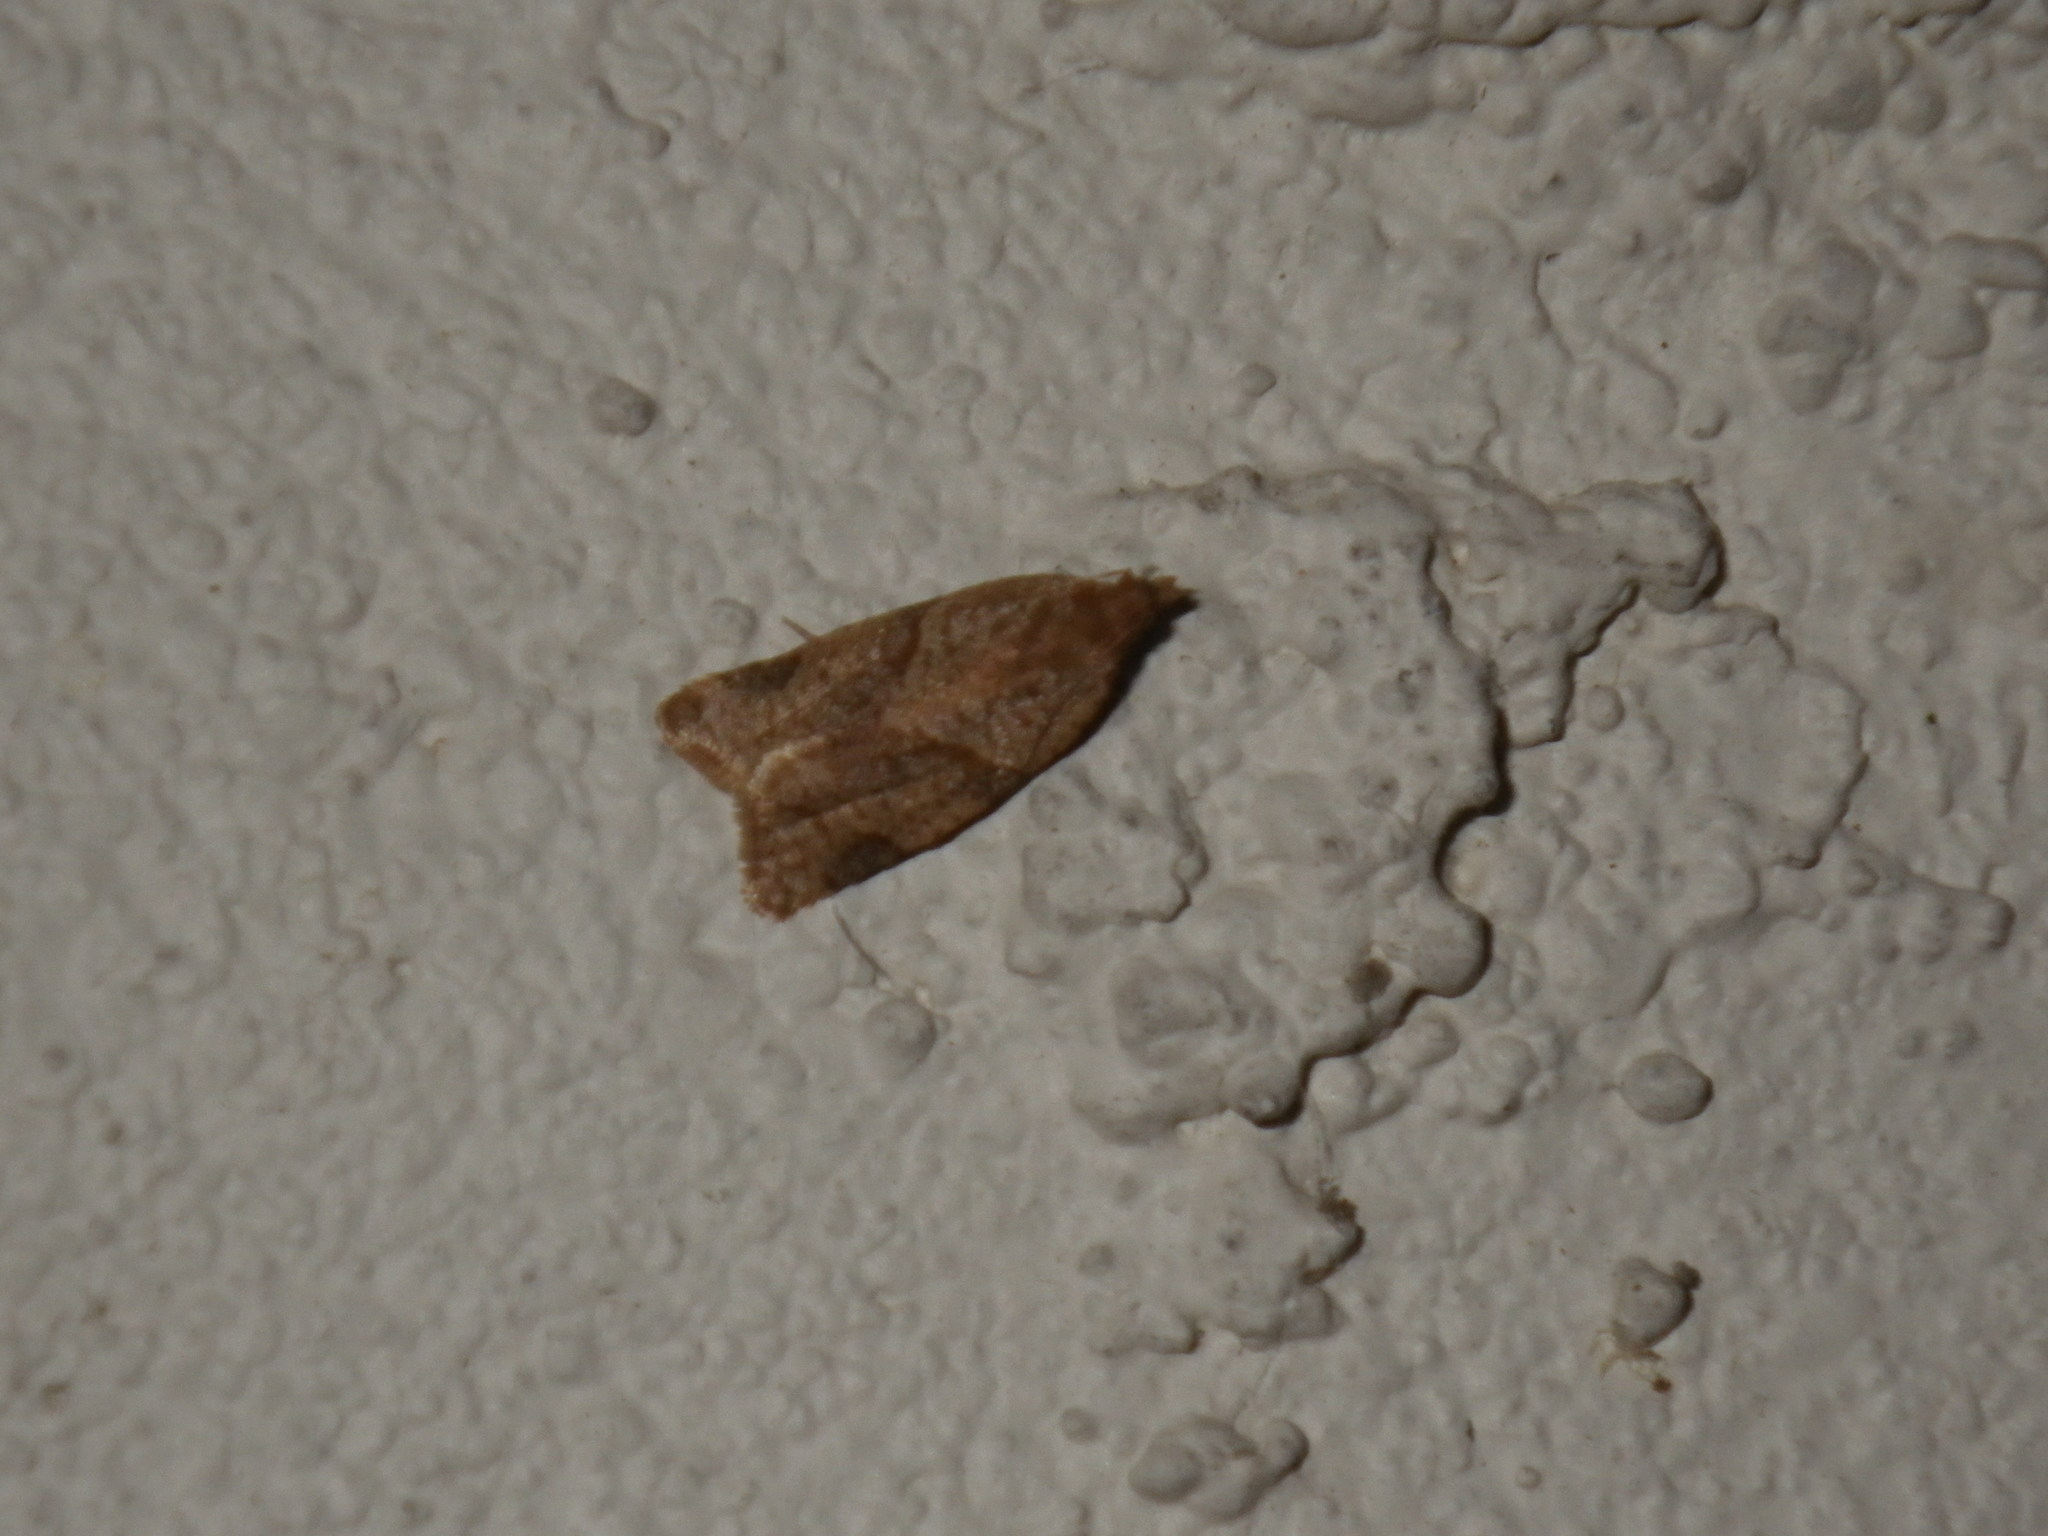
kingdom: Animalia
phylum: Arthropoda
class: Insecta
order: Lepidoptera
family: Tortricidae
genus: Clepsis
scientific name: Clepsis peritana
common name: Garden tortrix
